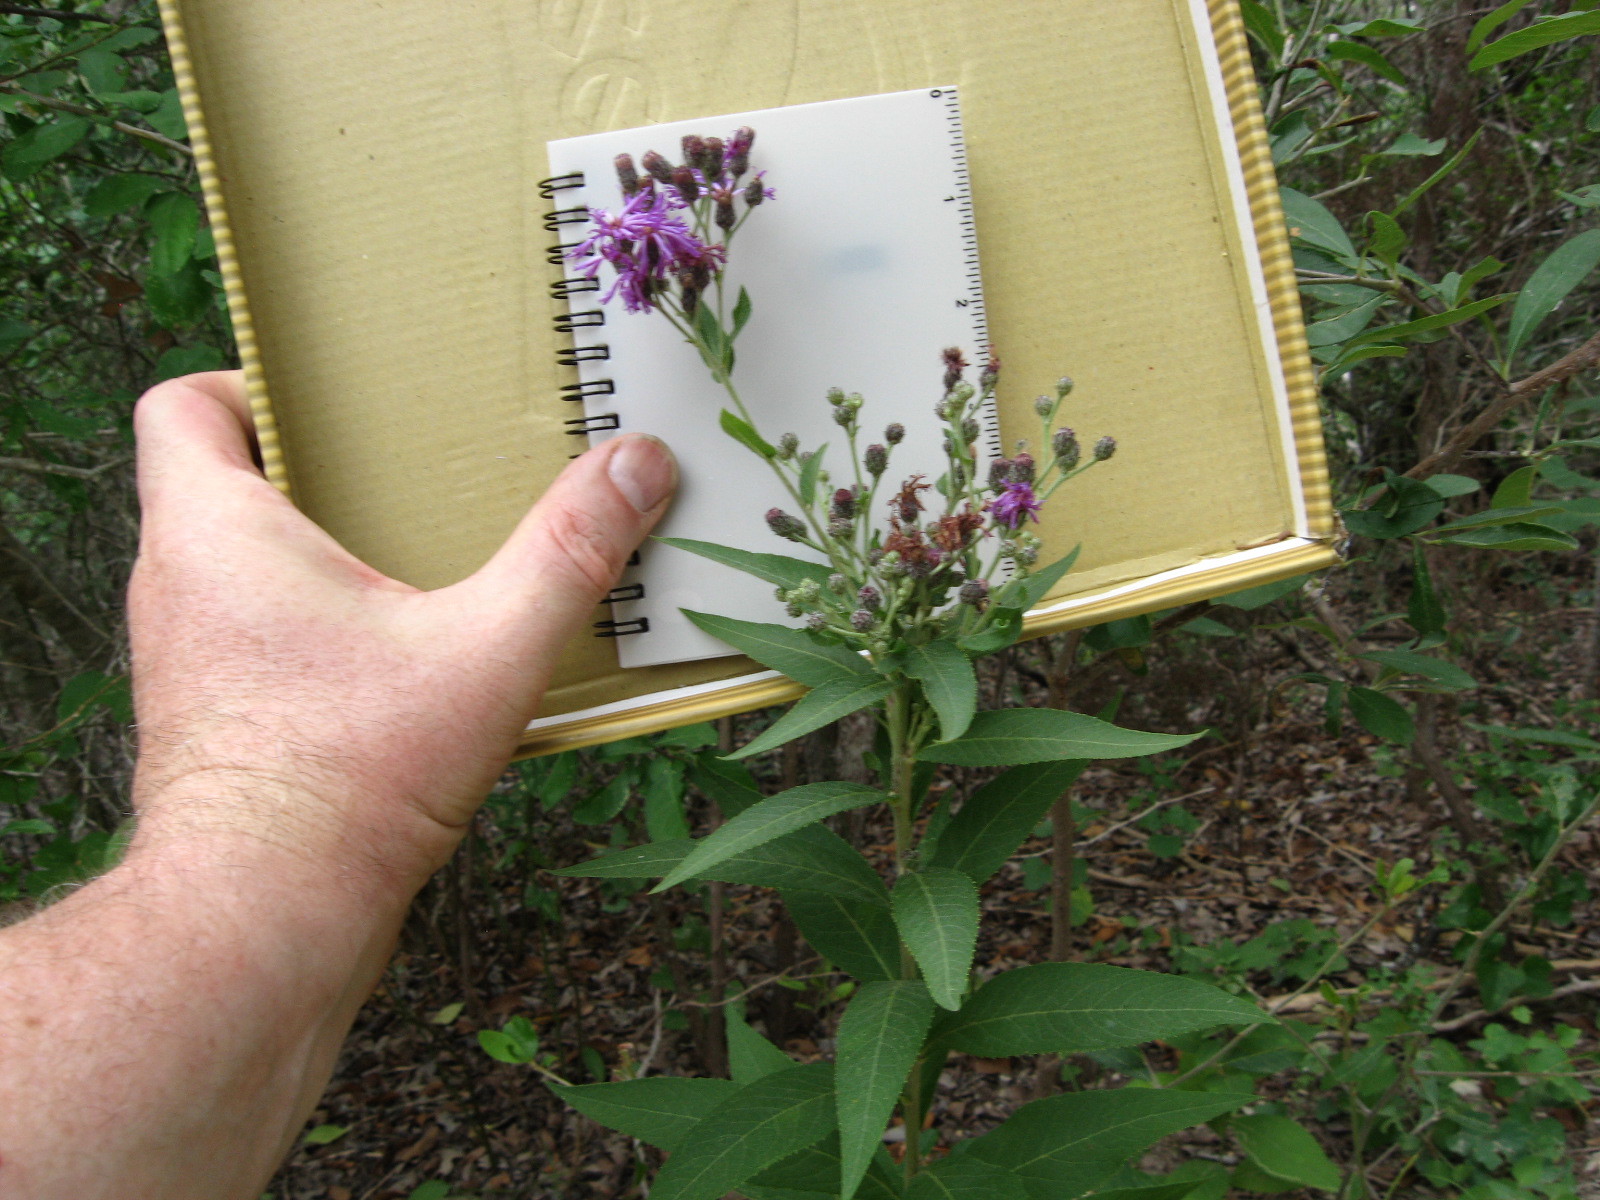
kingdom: Plantae
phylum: Tracheophyta
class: Magnoliopsida
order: Asterales
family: Asteraceae
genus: Vernonia
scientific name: Vernonia baldwinii
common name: Western ironweed
